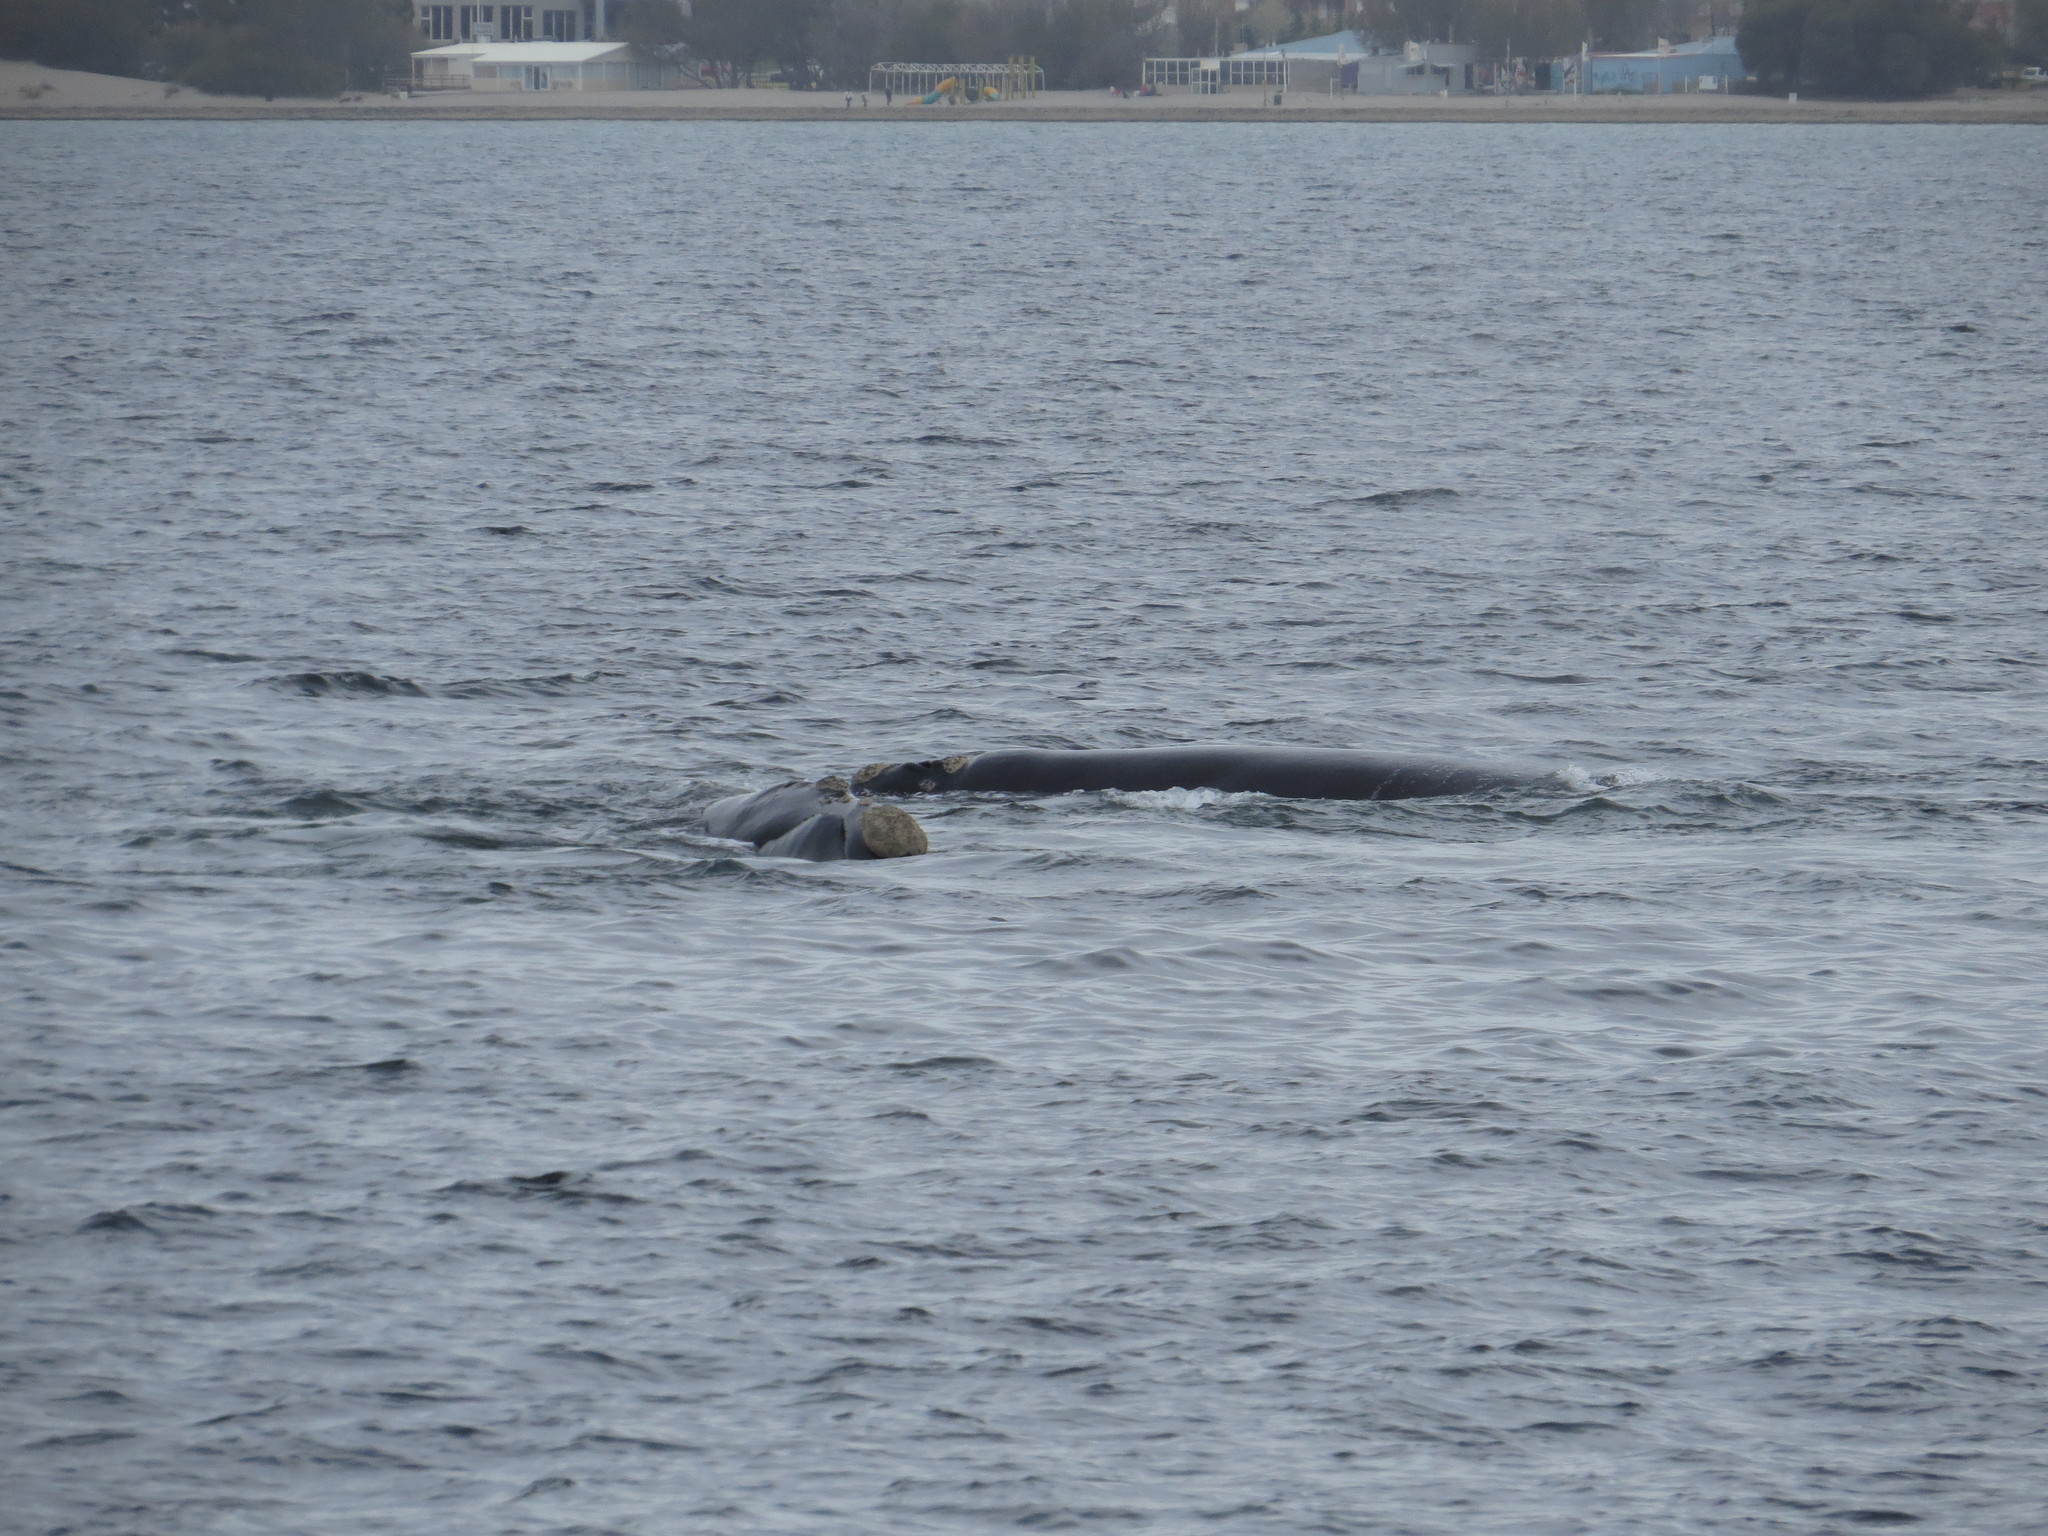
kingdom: Animalia
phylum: Chordata
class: Mammalia
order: Cetacea
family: Balaenidae
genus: Eubalaena
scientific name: Eubalaena australis
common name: Southern right whale
